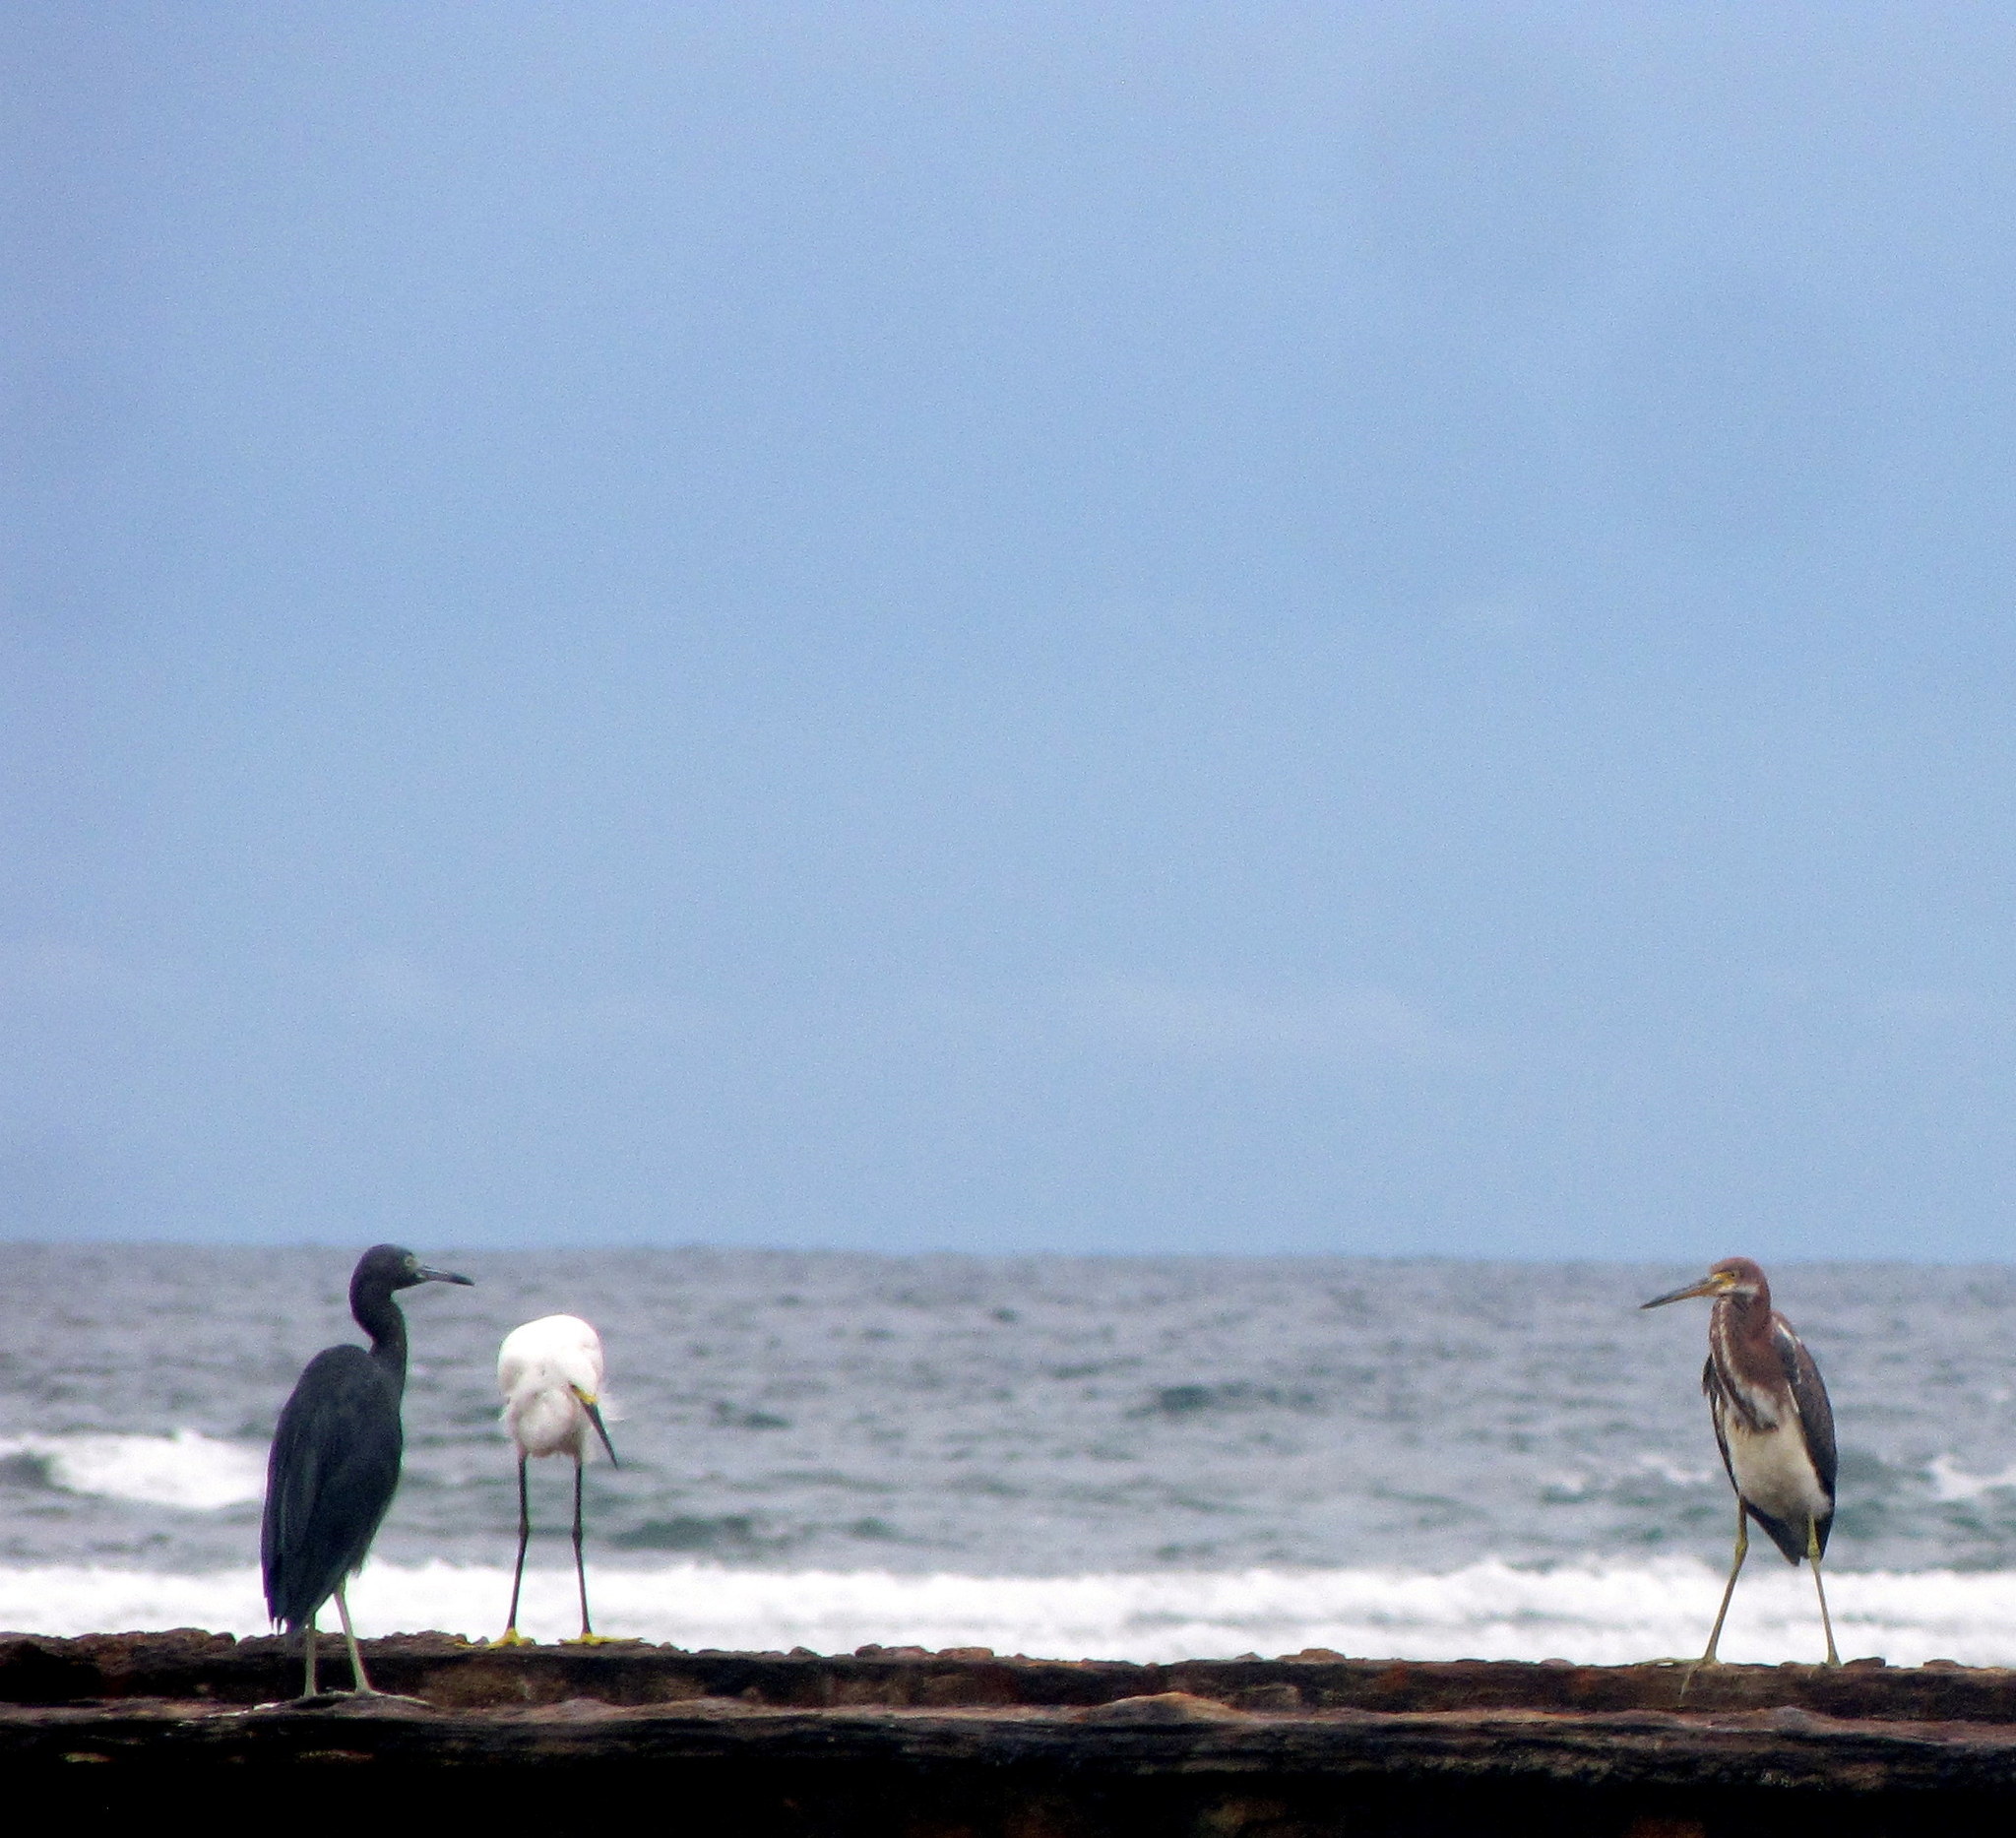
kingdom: Animalia
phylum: Chordata
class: Aves
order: Pelecaniformes
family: Ardeidae
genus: Egretta
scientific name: Egretta thula
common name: Snowy egret
